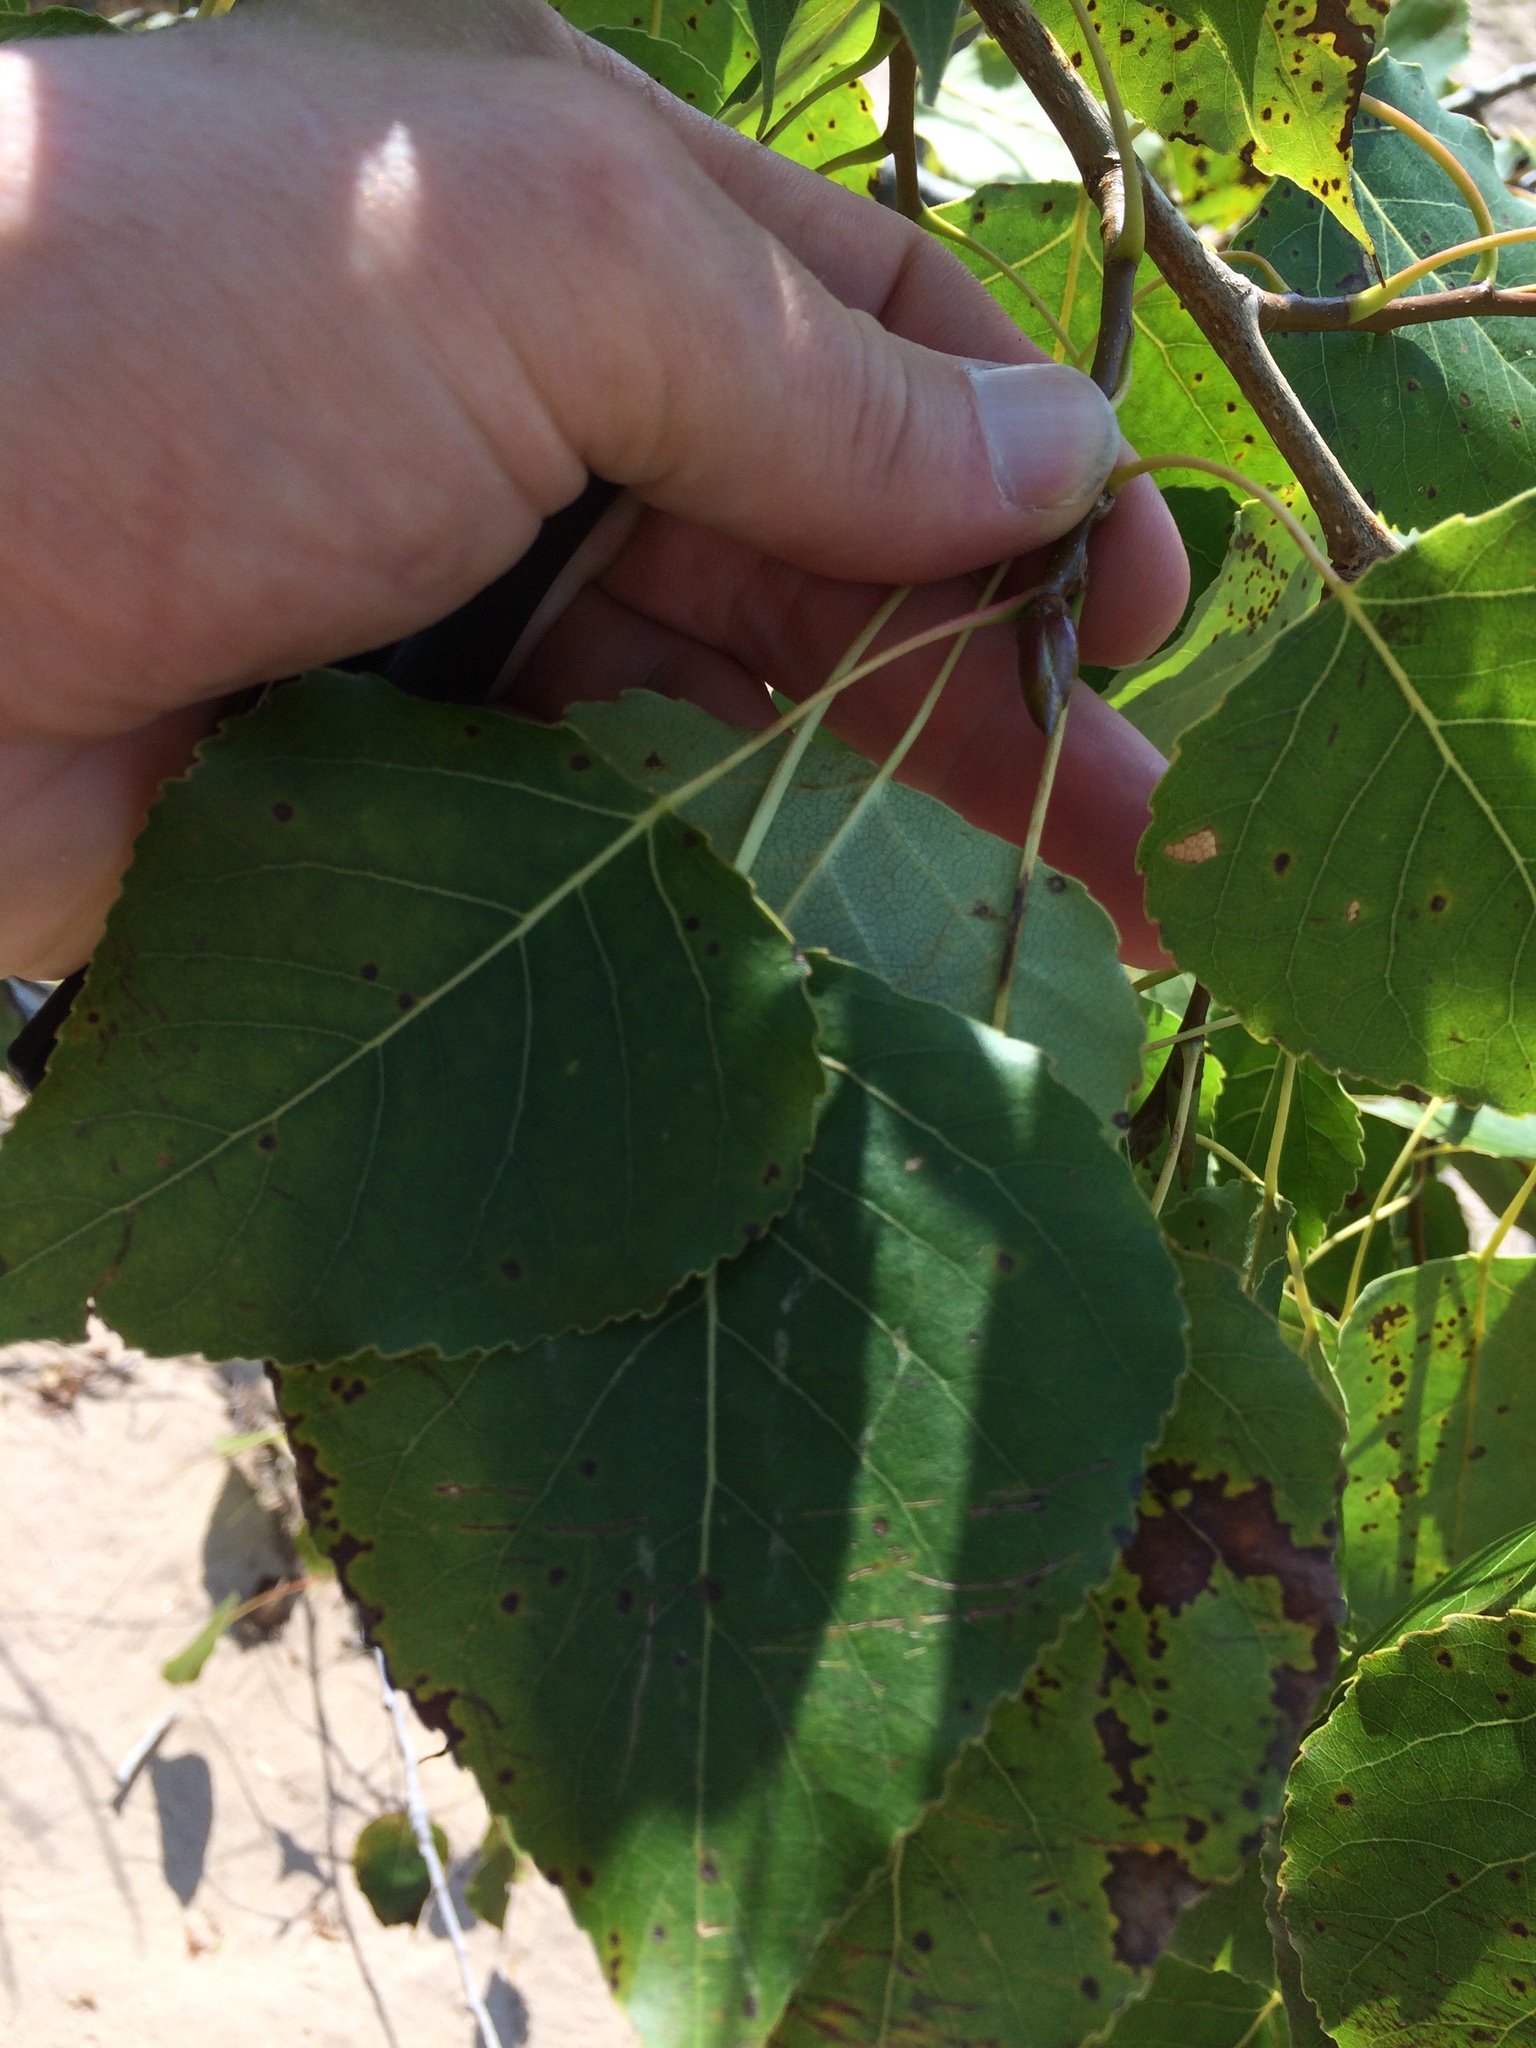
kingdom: Plantae
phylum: Tracheophyta
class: Magnoliopsida
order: Malpighiales
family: Salicaceae
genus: Populus
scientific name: Populus balsamifera
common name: Balsam poplar
